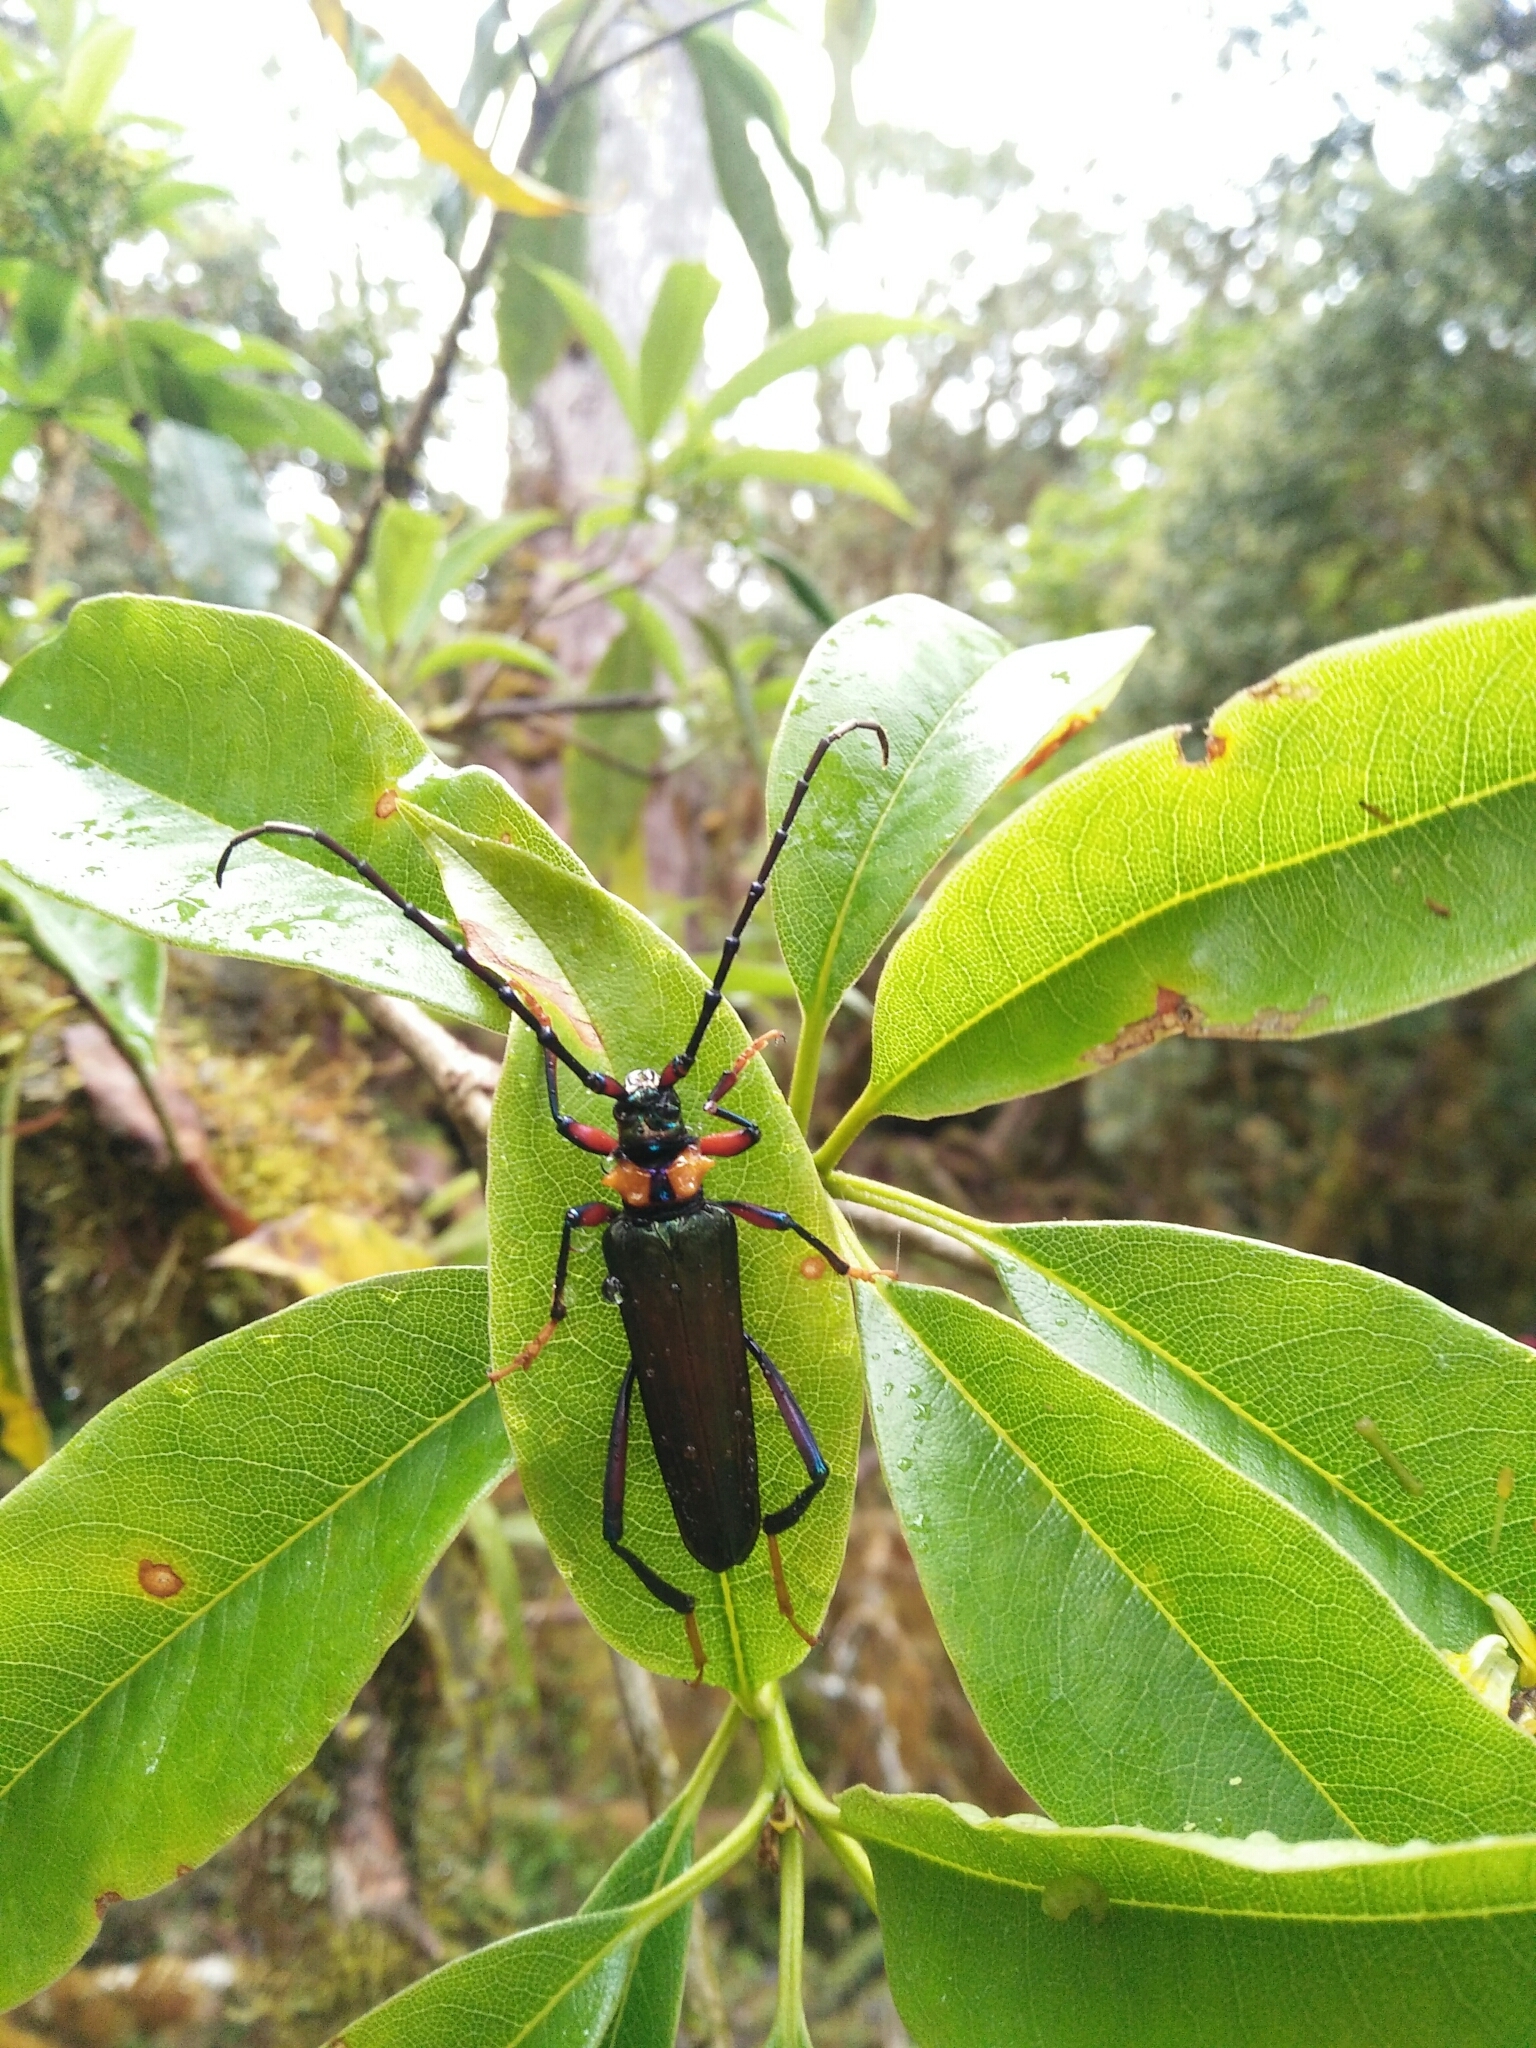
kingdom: Animalia
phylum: Arthropoda
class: Insecta
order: Coleoptera
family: Cerambycidae
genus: Aphrodisium
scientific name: Aphrodisium faldermannii
